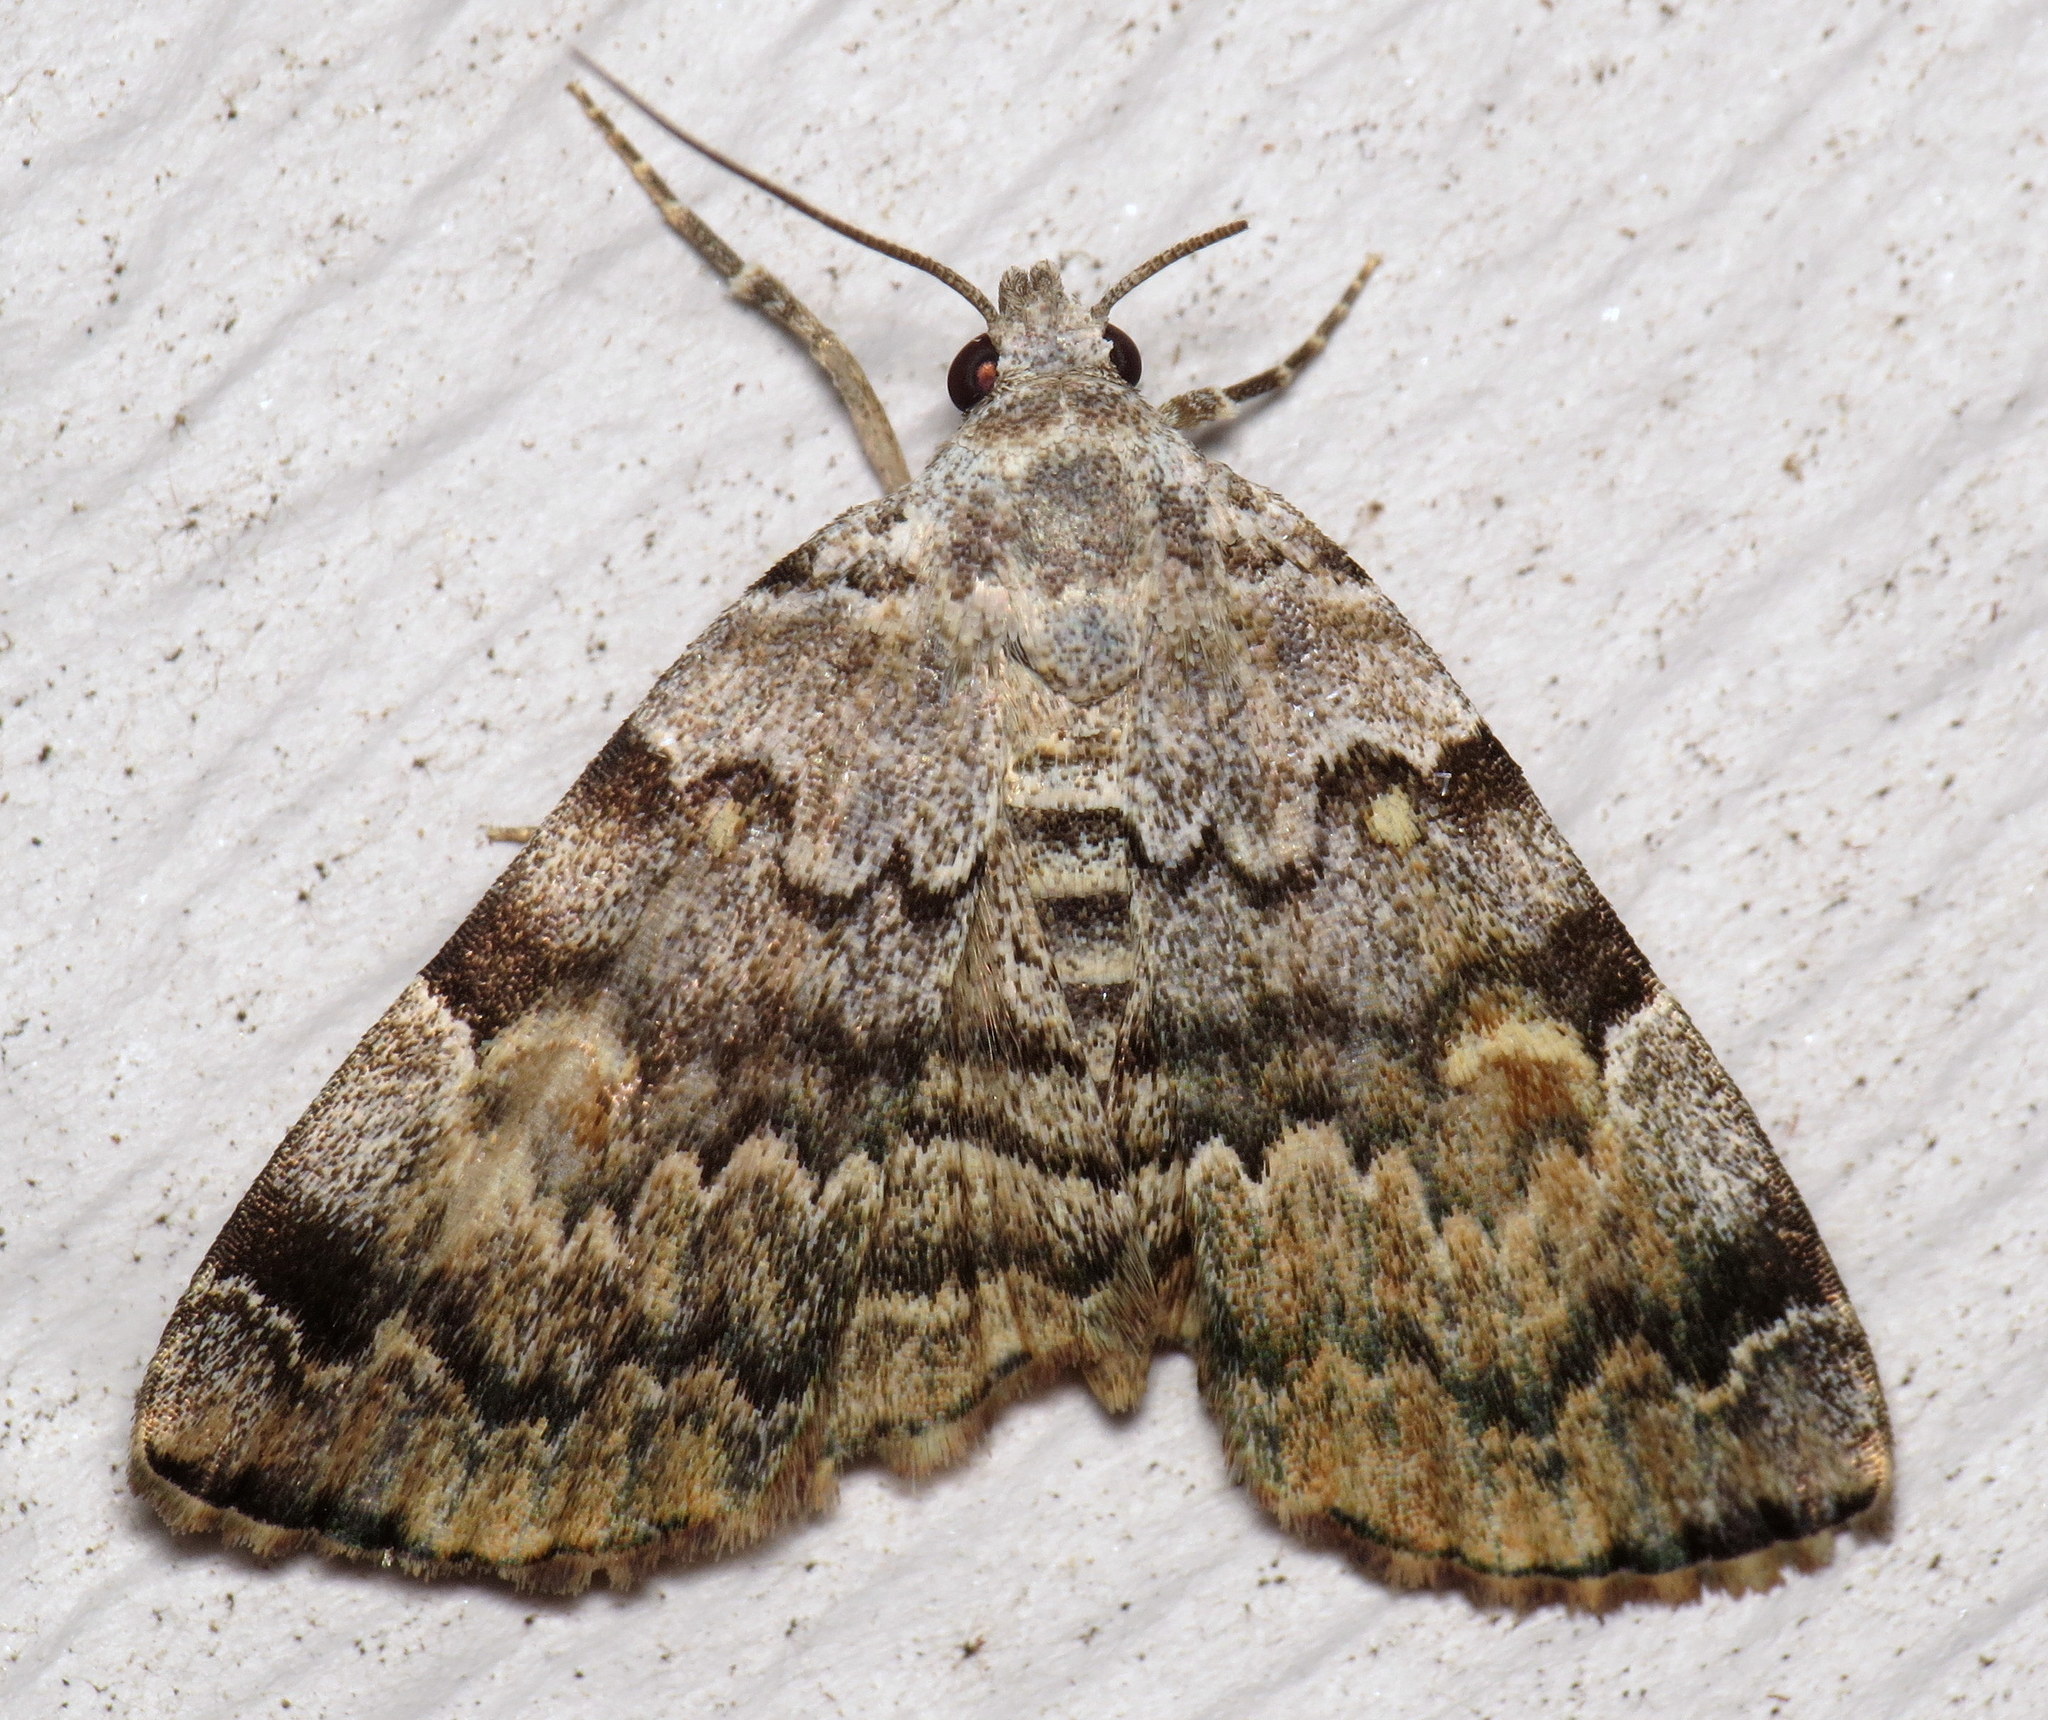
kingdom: Animalia
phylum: Arthropoda
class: Insecta
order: Lepidoptera
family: Erebidae
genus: Idia
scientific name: Idia americalis
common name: American idia moth
